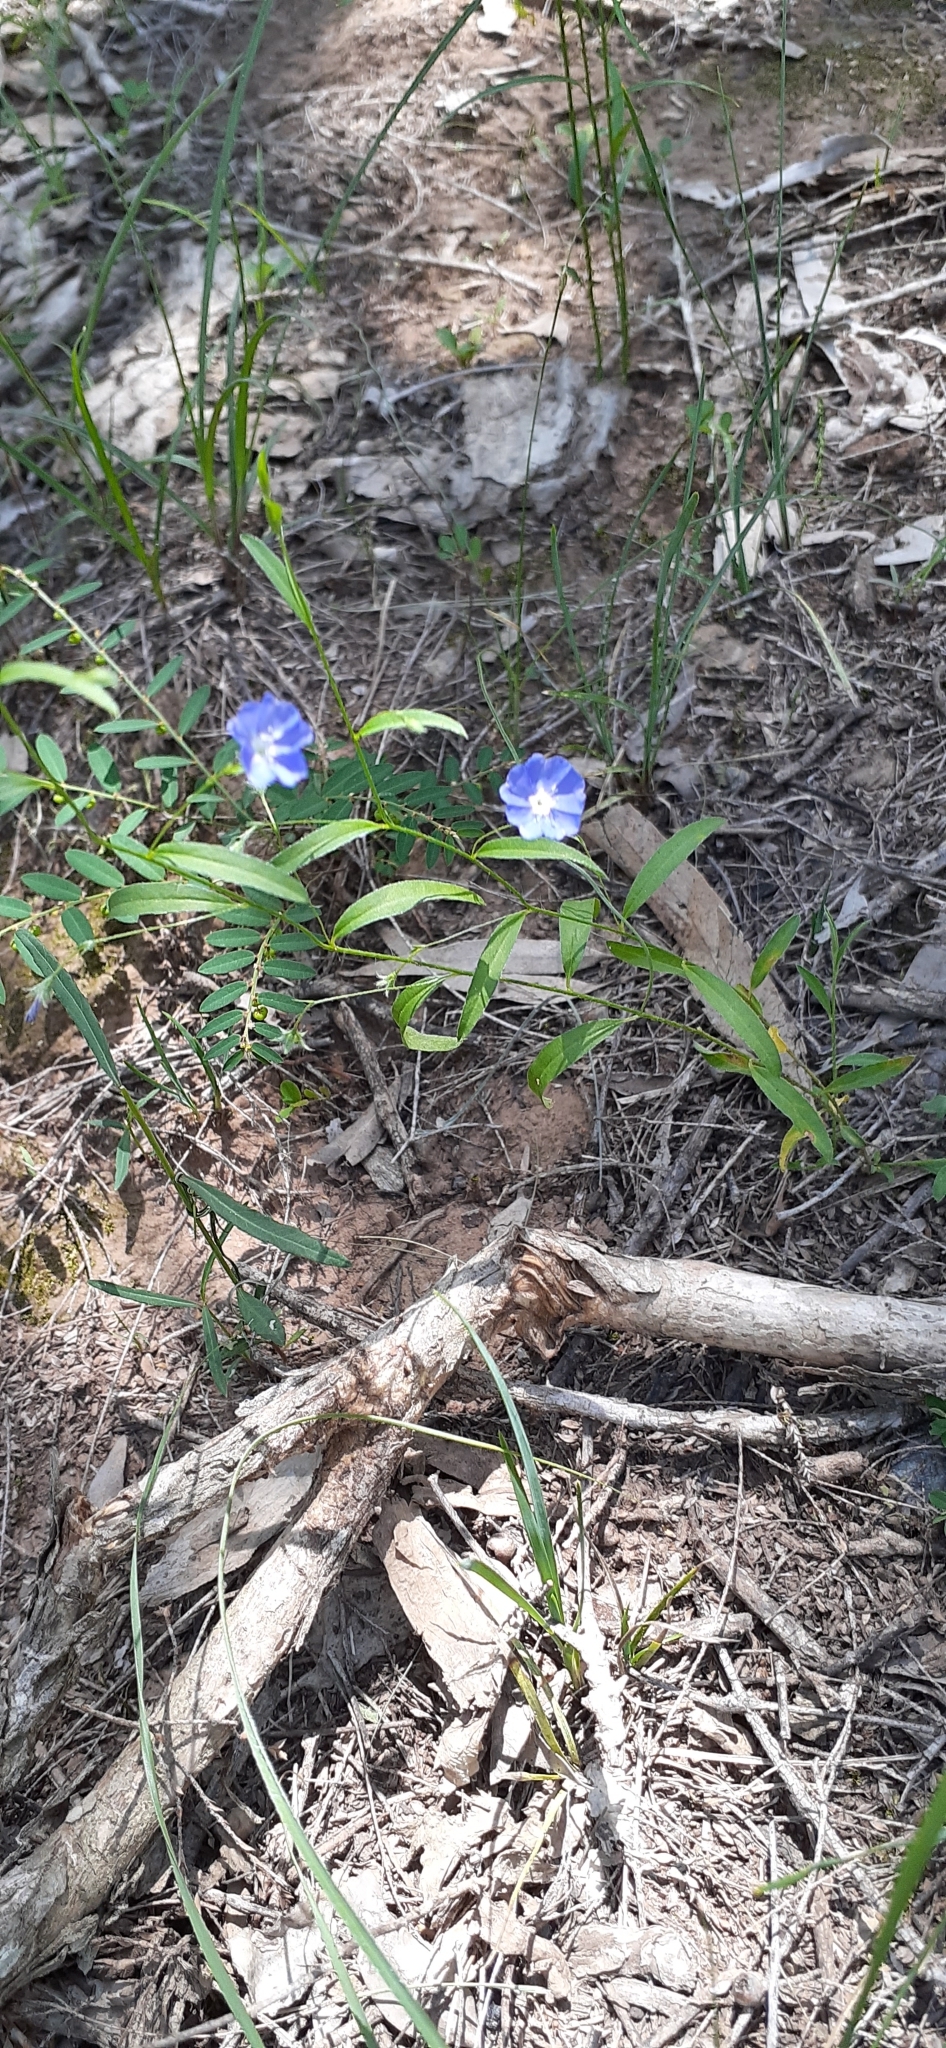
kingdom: Plantae
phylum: Tracheophyta
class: Magnoliopsida
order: Solanales
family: Convolvulaceae
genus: Evolvulus
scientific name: Evolvulus alsinoides
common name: Slender dwarf morning-glory
